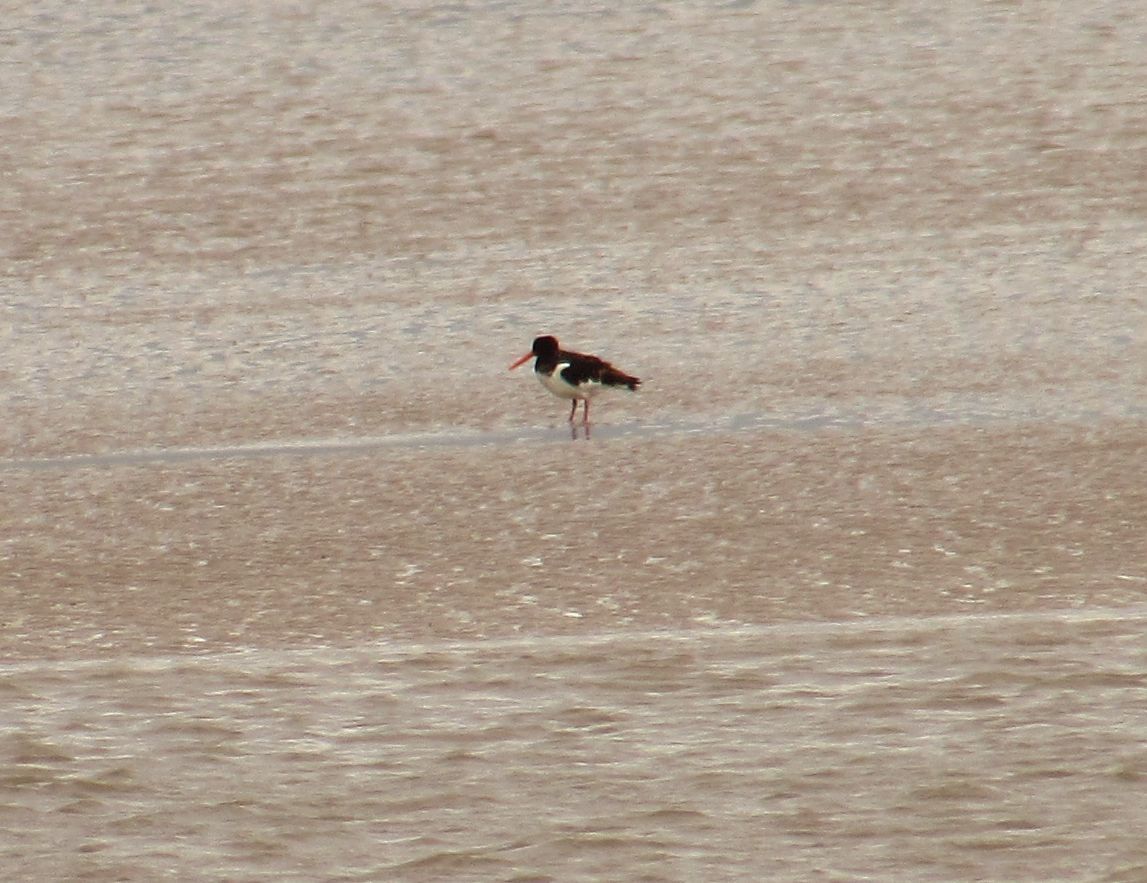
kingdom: Animalia
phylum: Chordata
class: Aves
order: Charadriiformes
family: Haematopodidae
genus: Haematopus
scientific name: Haematopus ostralegus
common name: Eurasian oystercatcher
